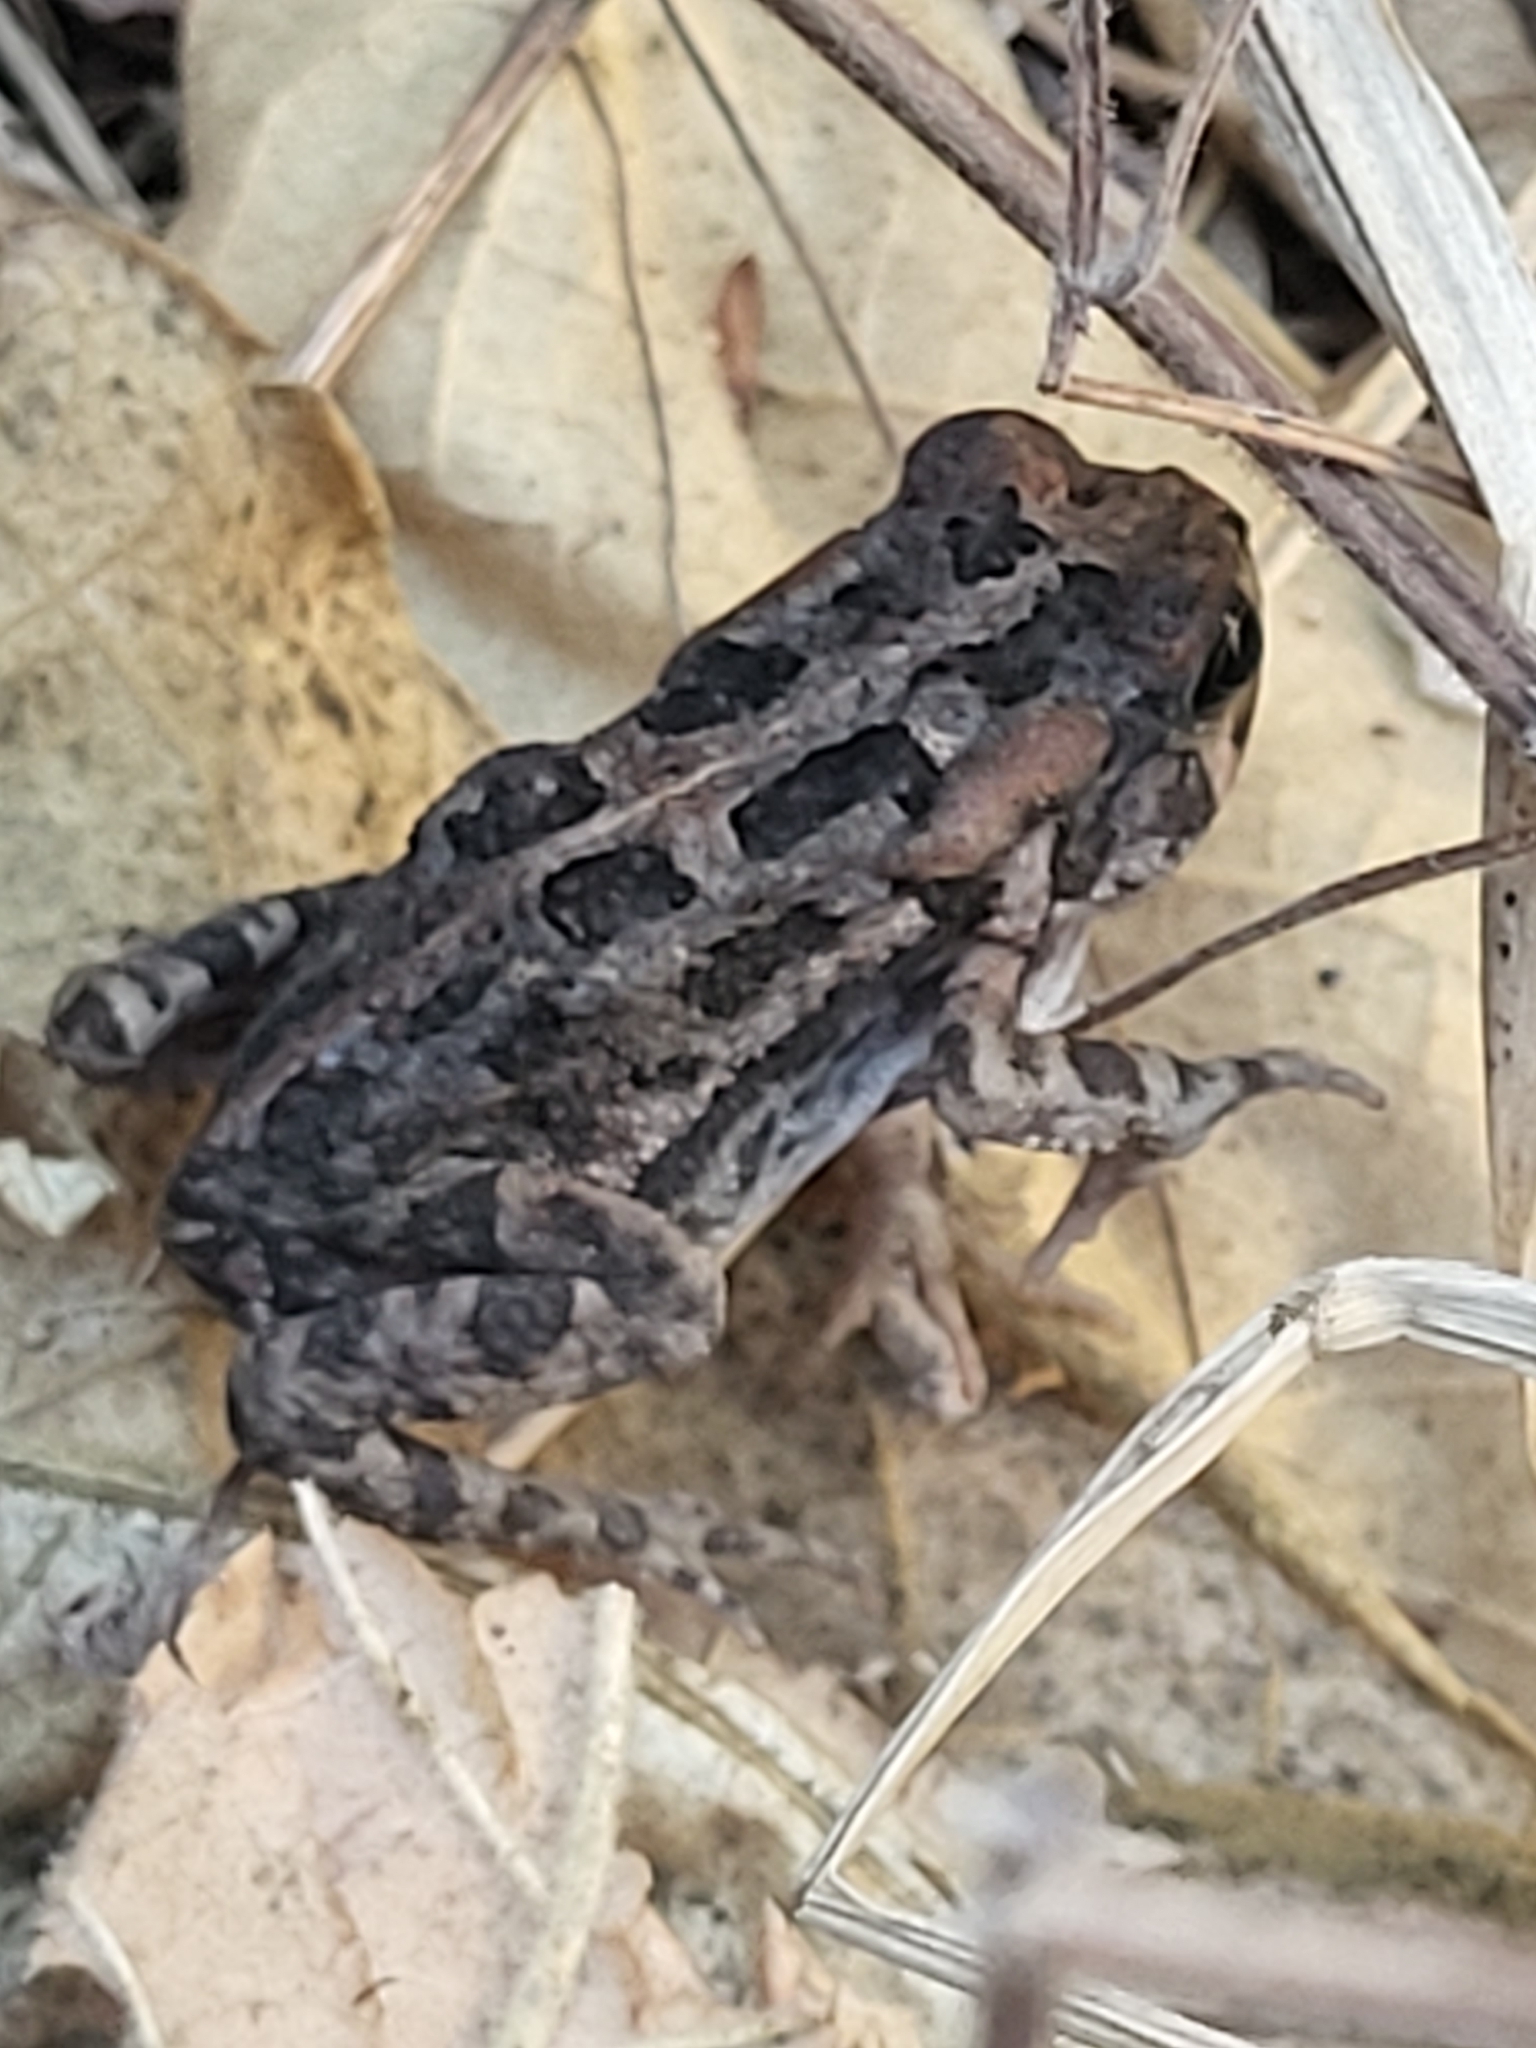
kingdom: Animalia
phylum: Chordata
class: Amphibia
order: Anura
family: Bufonidae
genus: Sclerophrys
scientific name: Sclerophrys gutturalis
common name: African common toad
